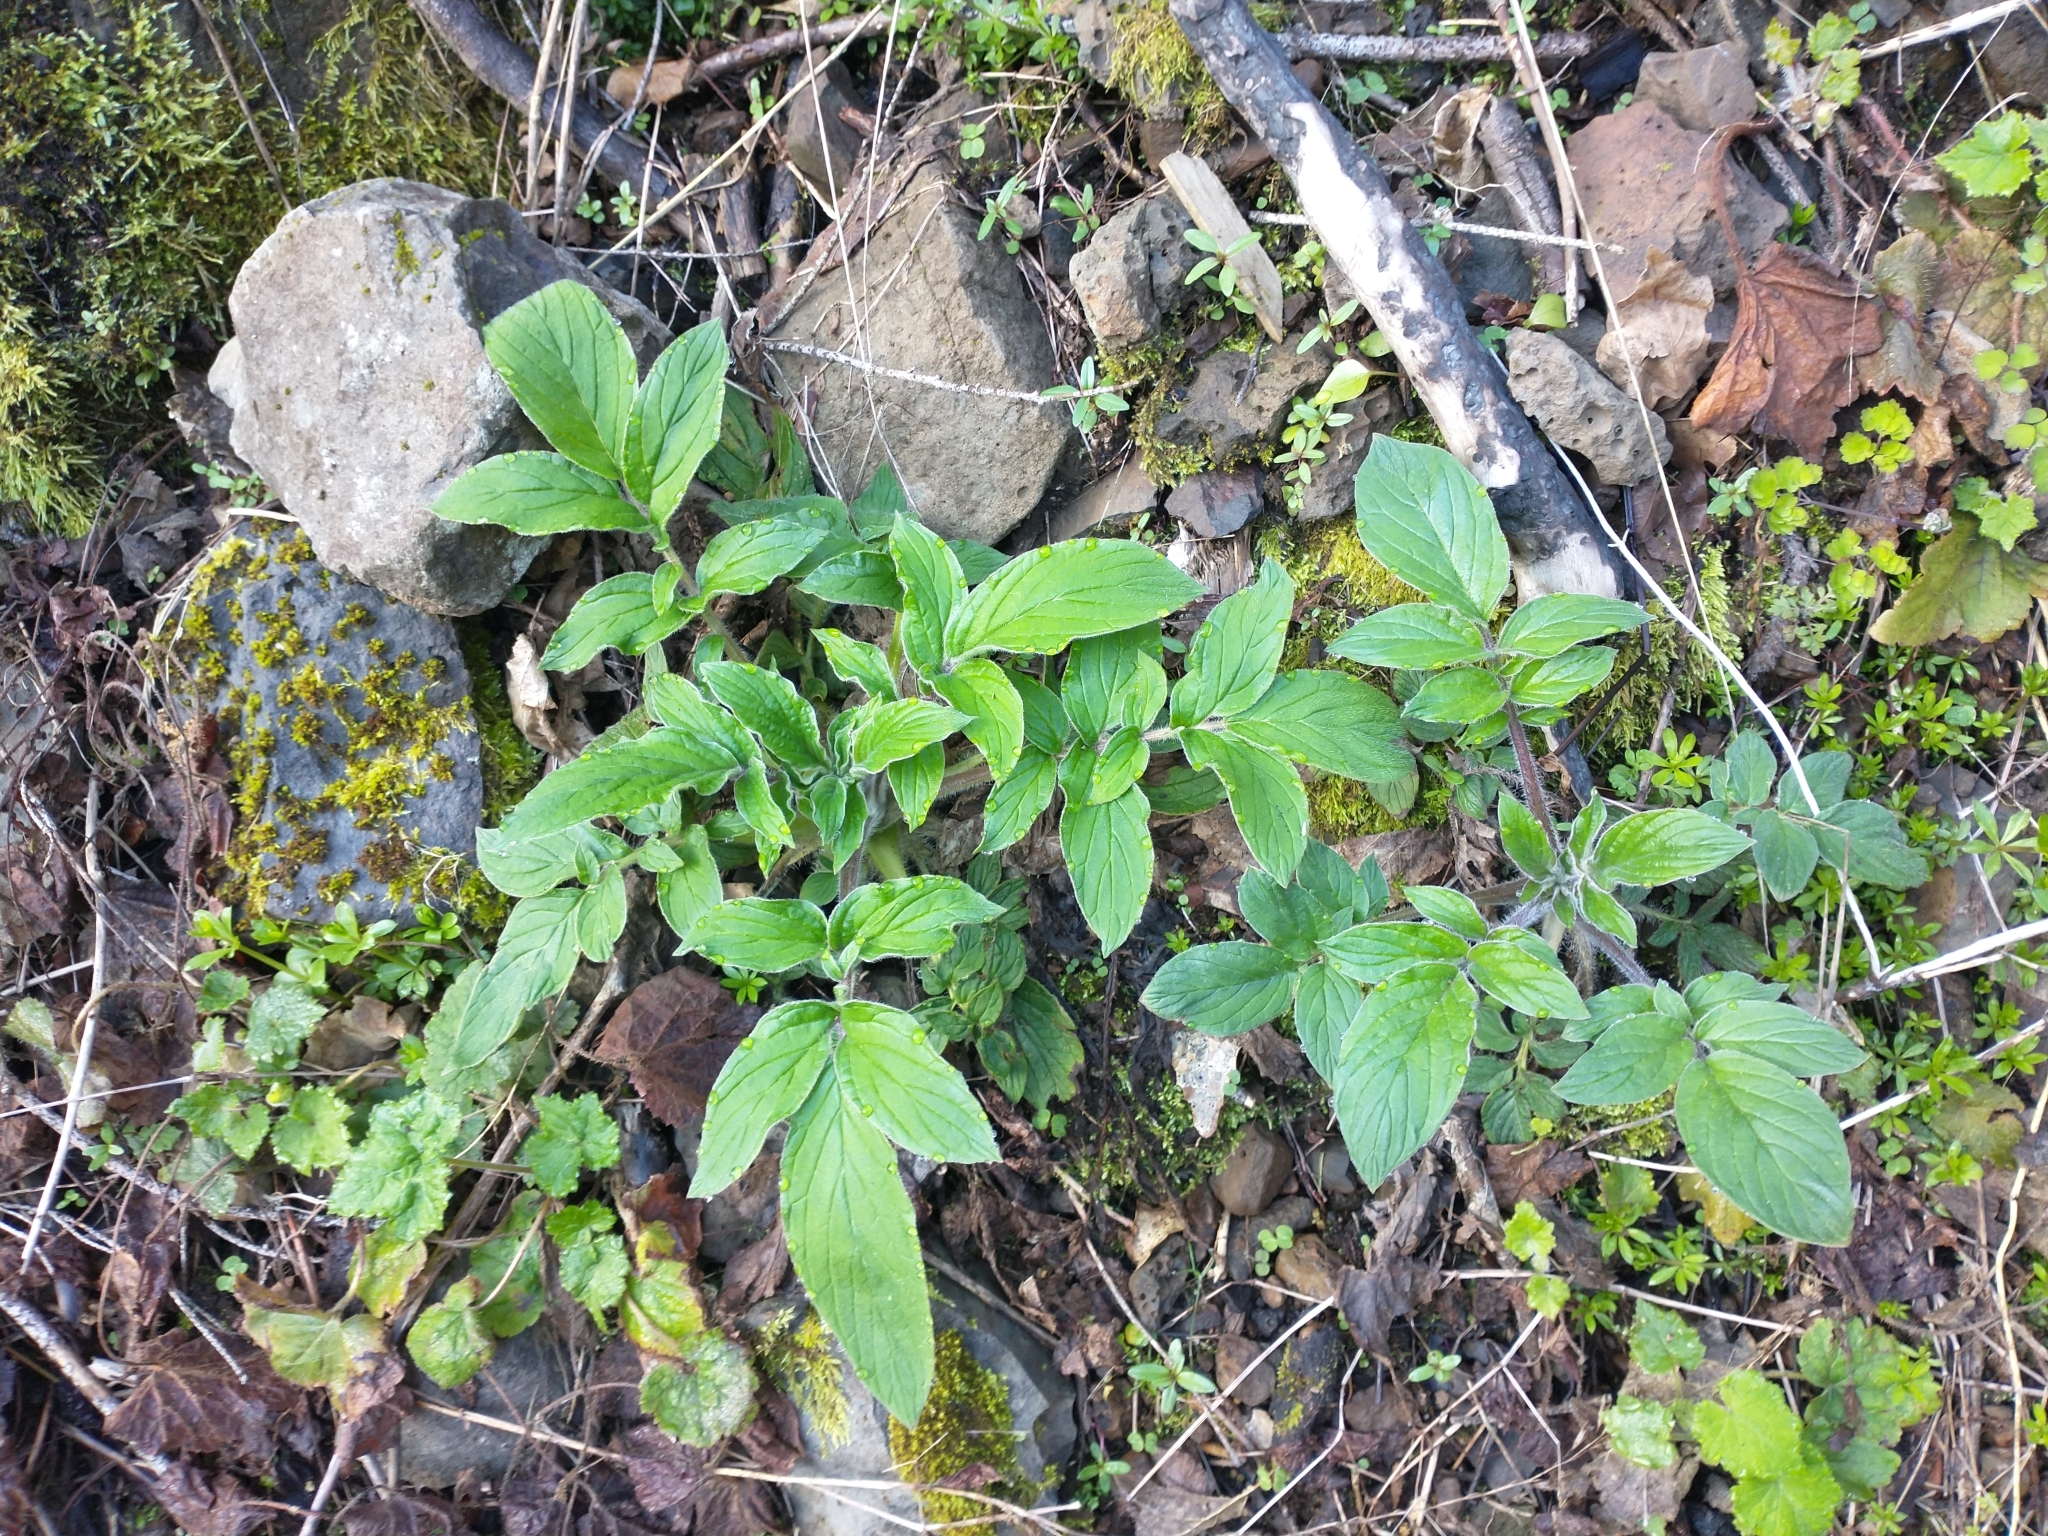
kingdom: Plantae
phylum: Tracheophyta
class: Magnoliopsida
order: Boraginales
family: Hydrophyllaceae
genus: Phacelia
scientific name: Phacelia nemoralis
